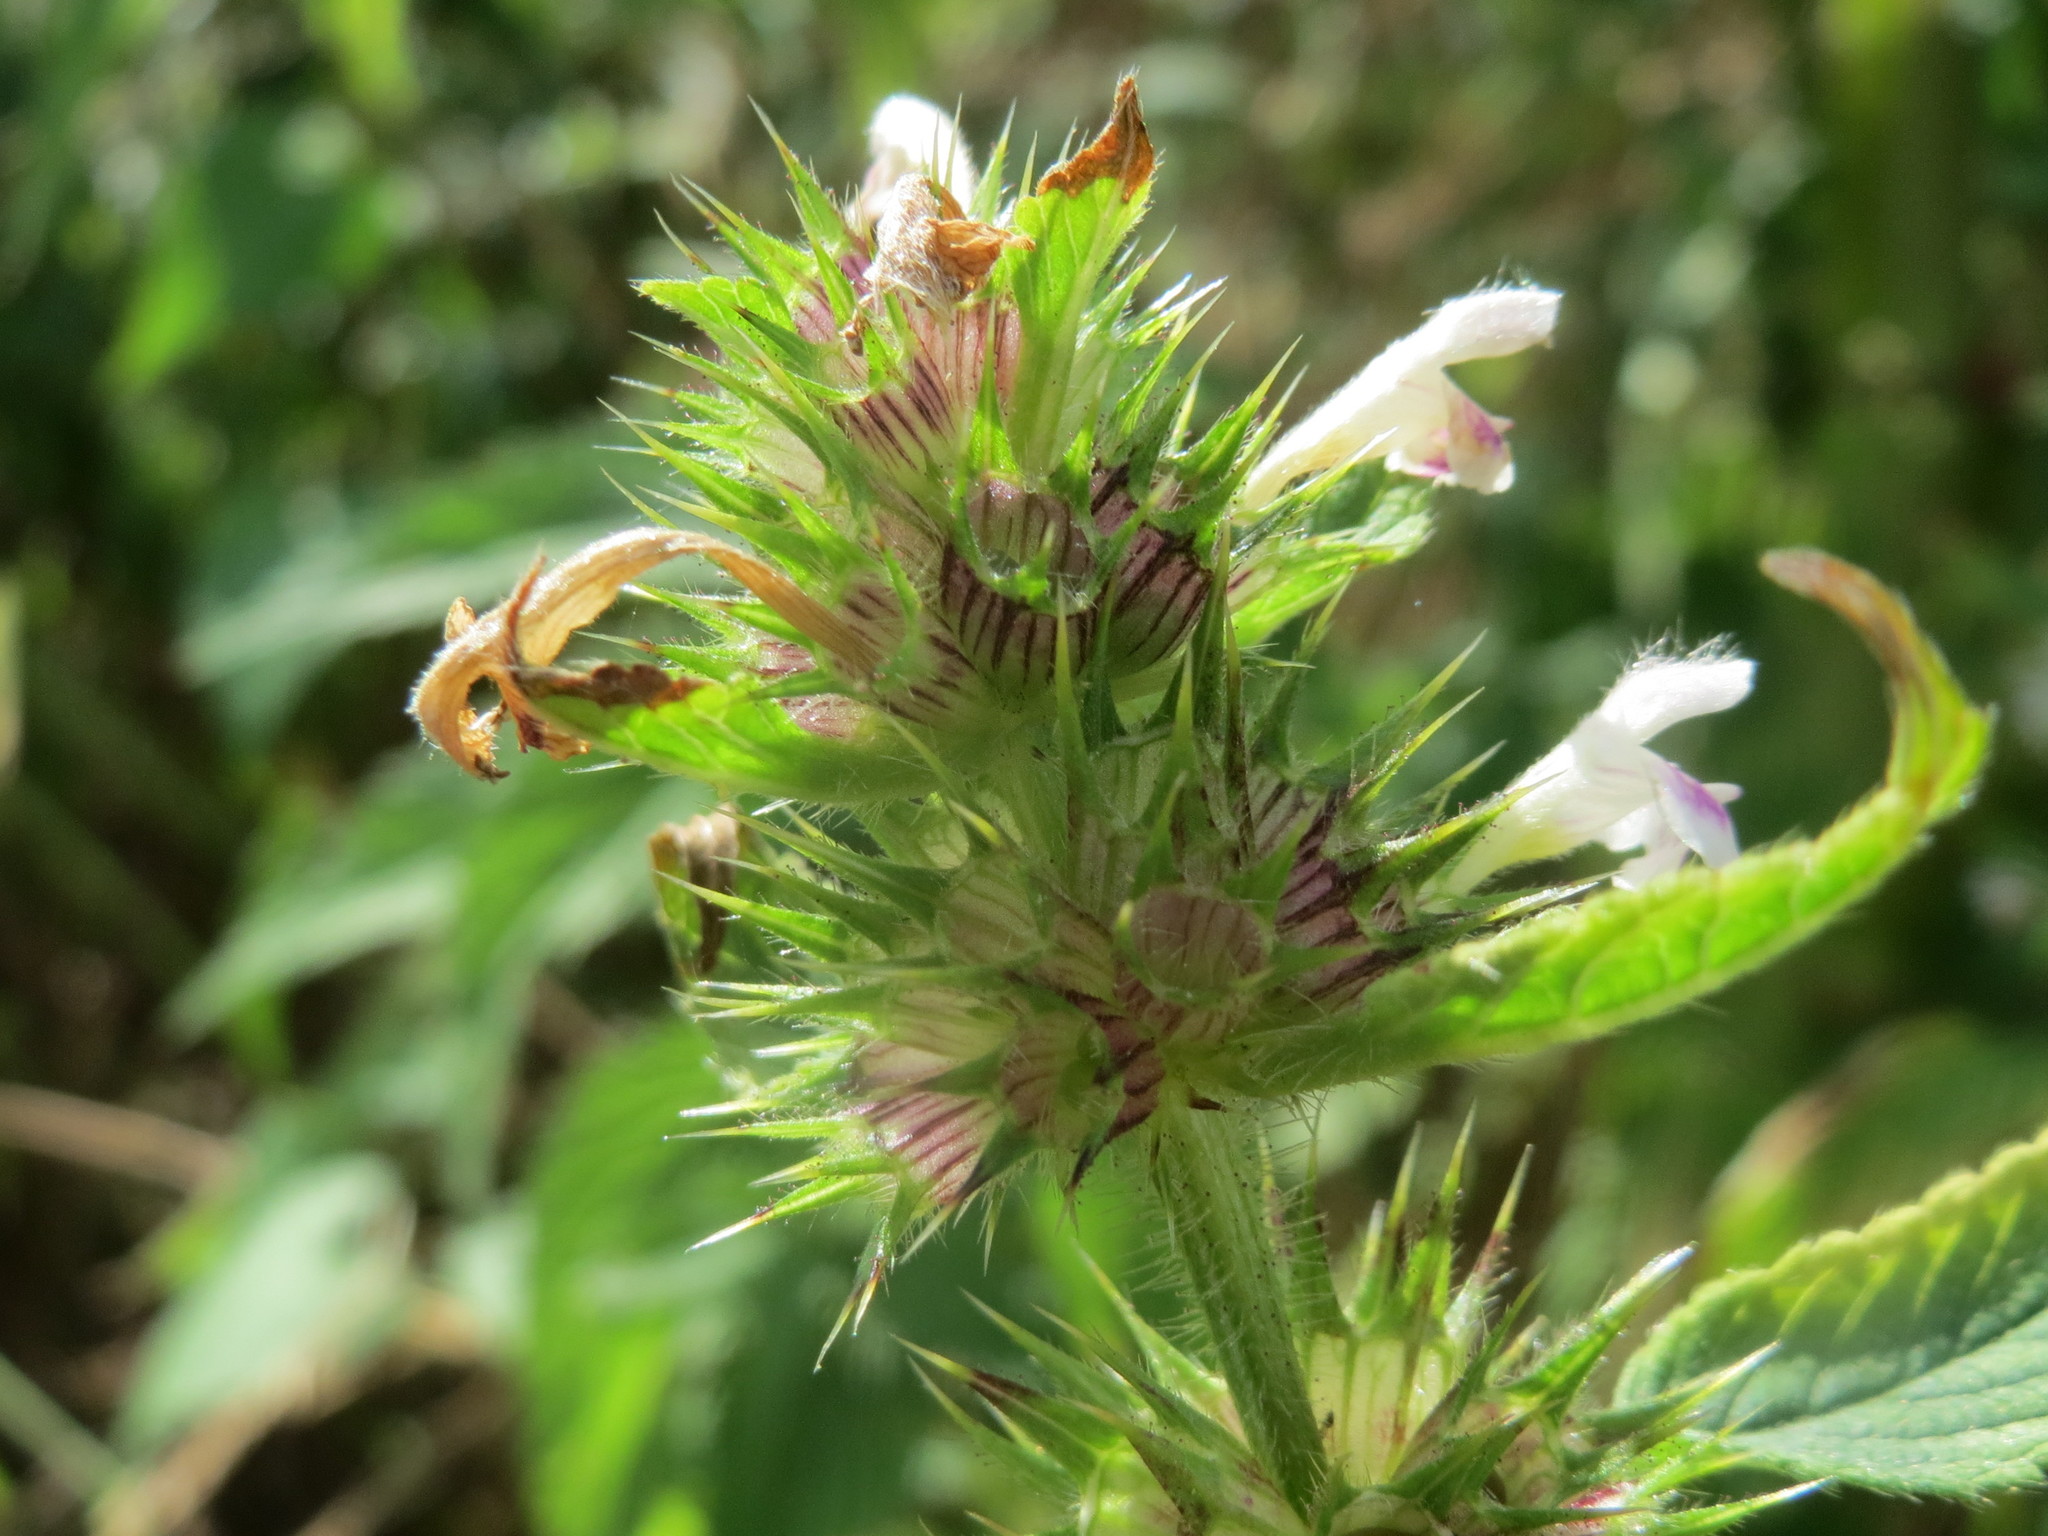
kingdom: Plantae
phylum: Tracheophyta
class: Magnoliopsida
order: Lamiales
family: Lamiaceae
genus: Galeopsis
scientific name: Galeopsis tetrahit
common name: Common hemp-nettle
